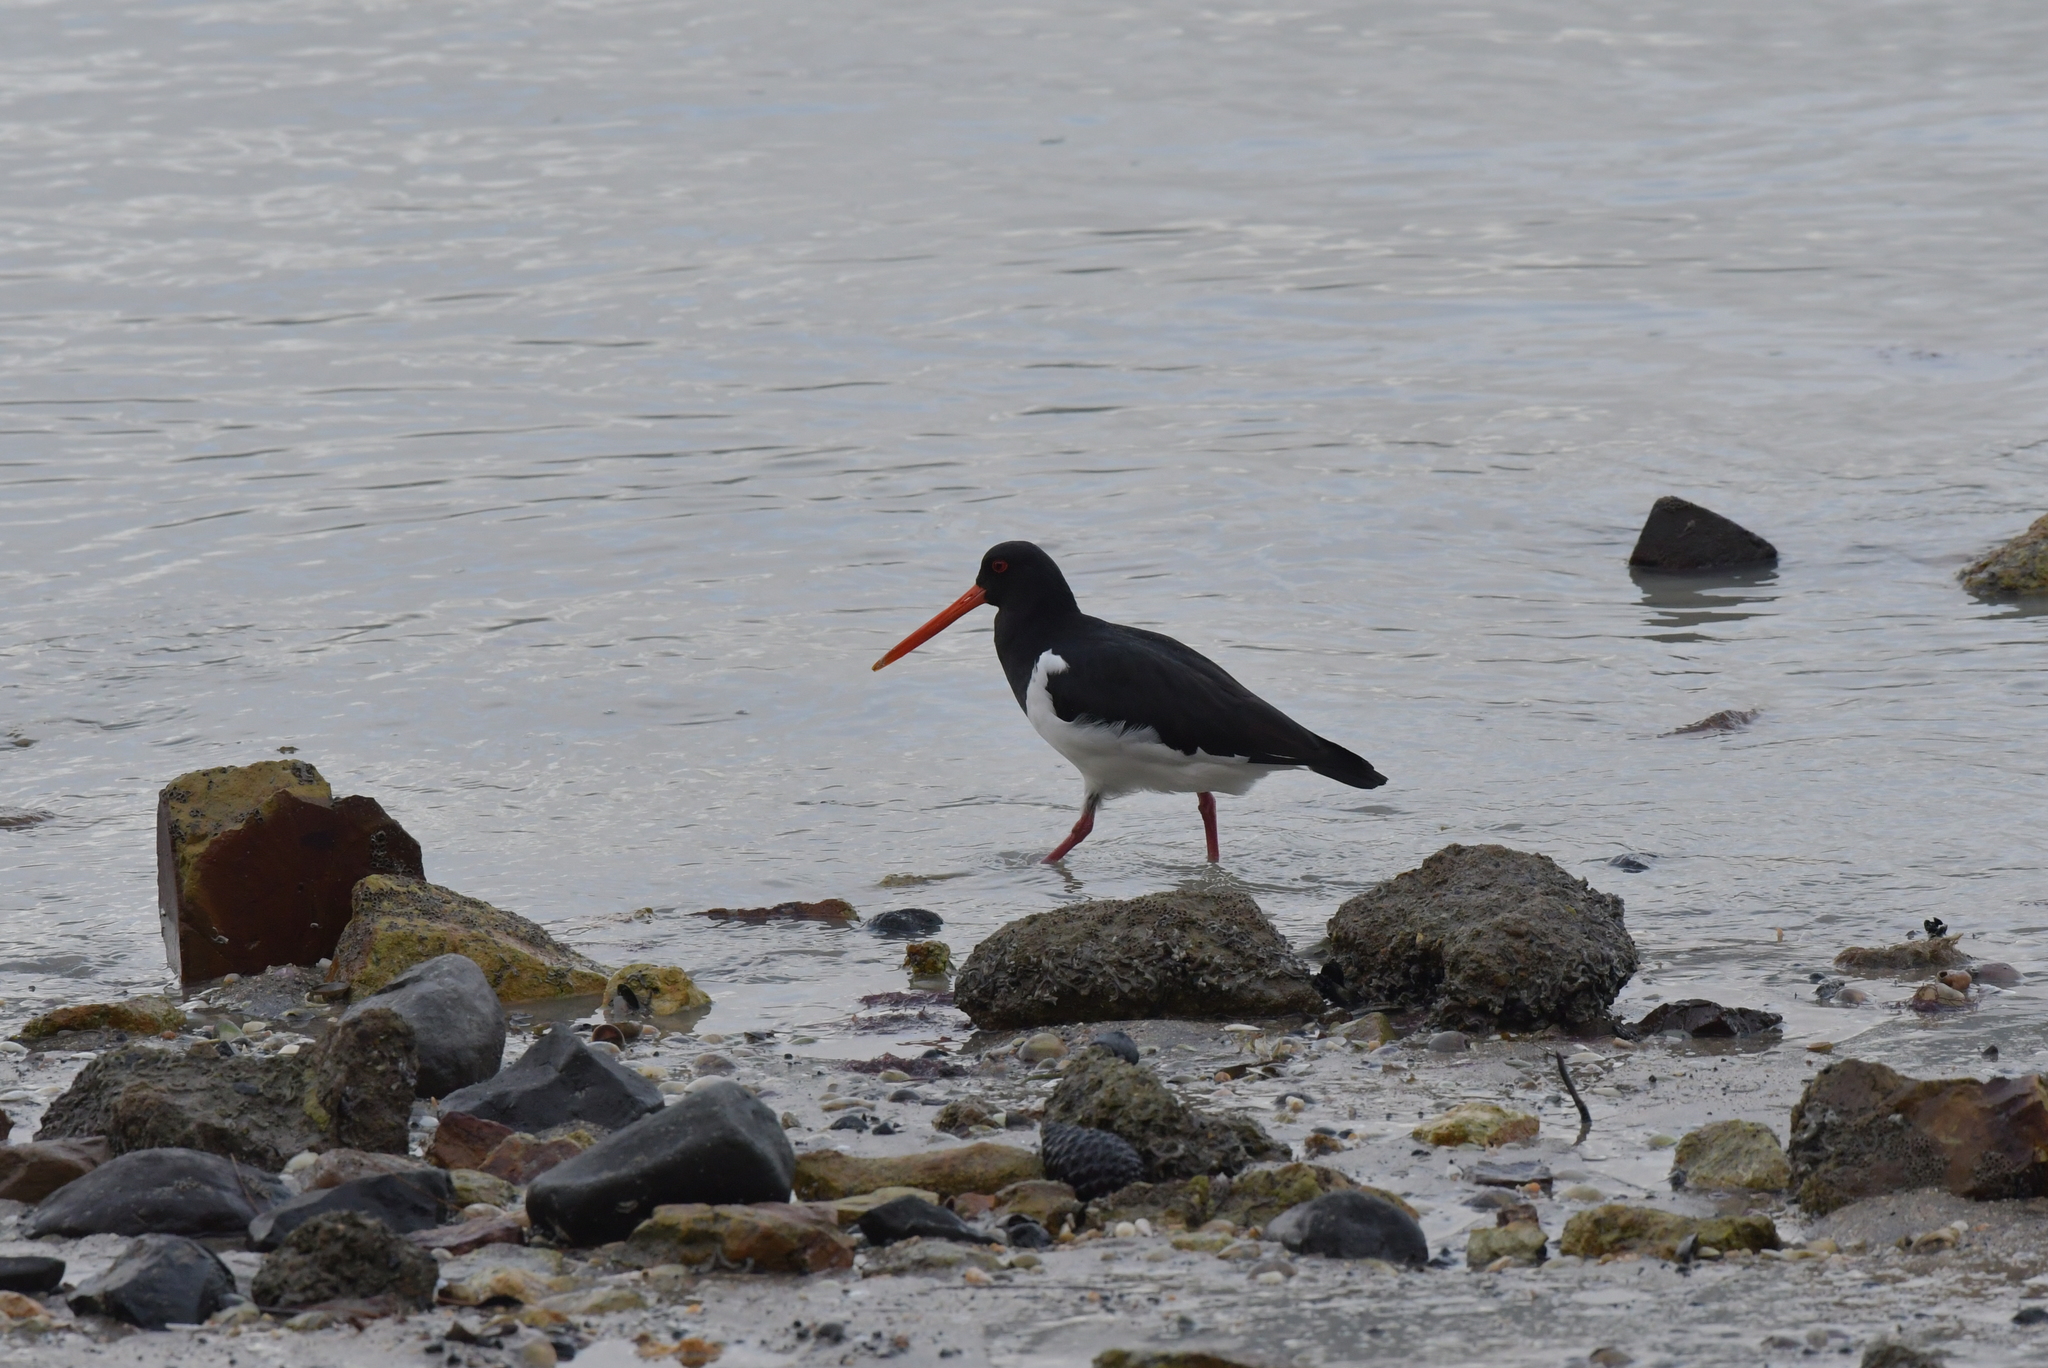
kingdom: Animalia
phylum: Chordata
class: Aves
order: Charadriiformes
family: Haematopodidae
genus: Haematopus
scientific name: Haematopus finschi
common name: South island oystercatcher
